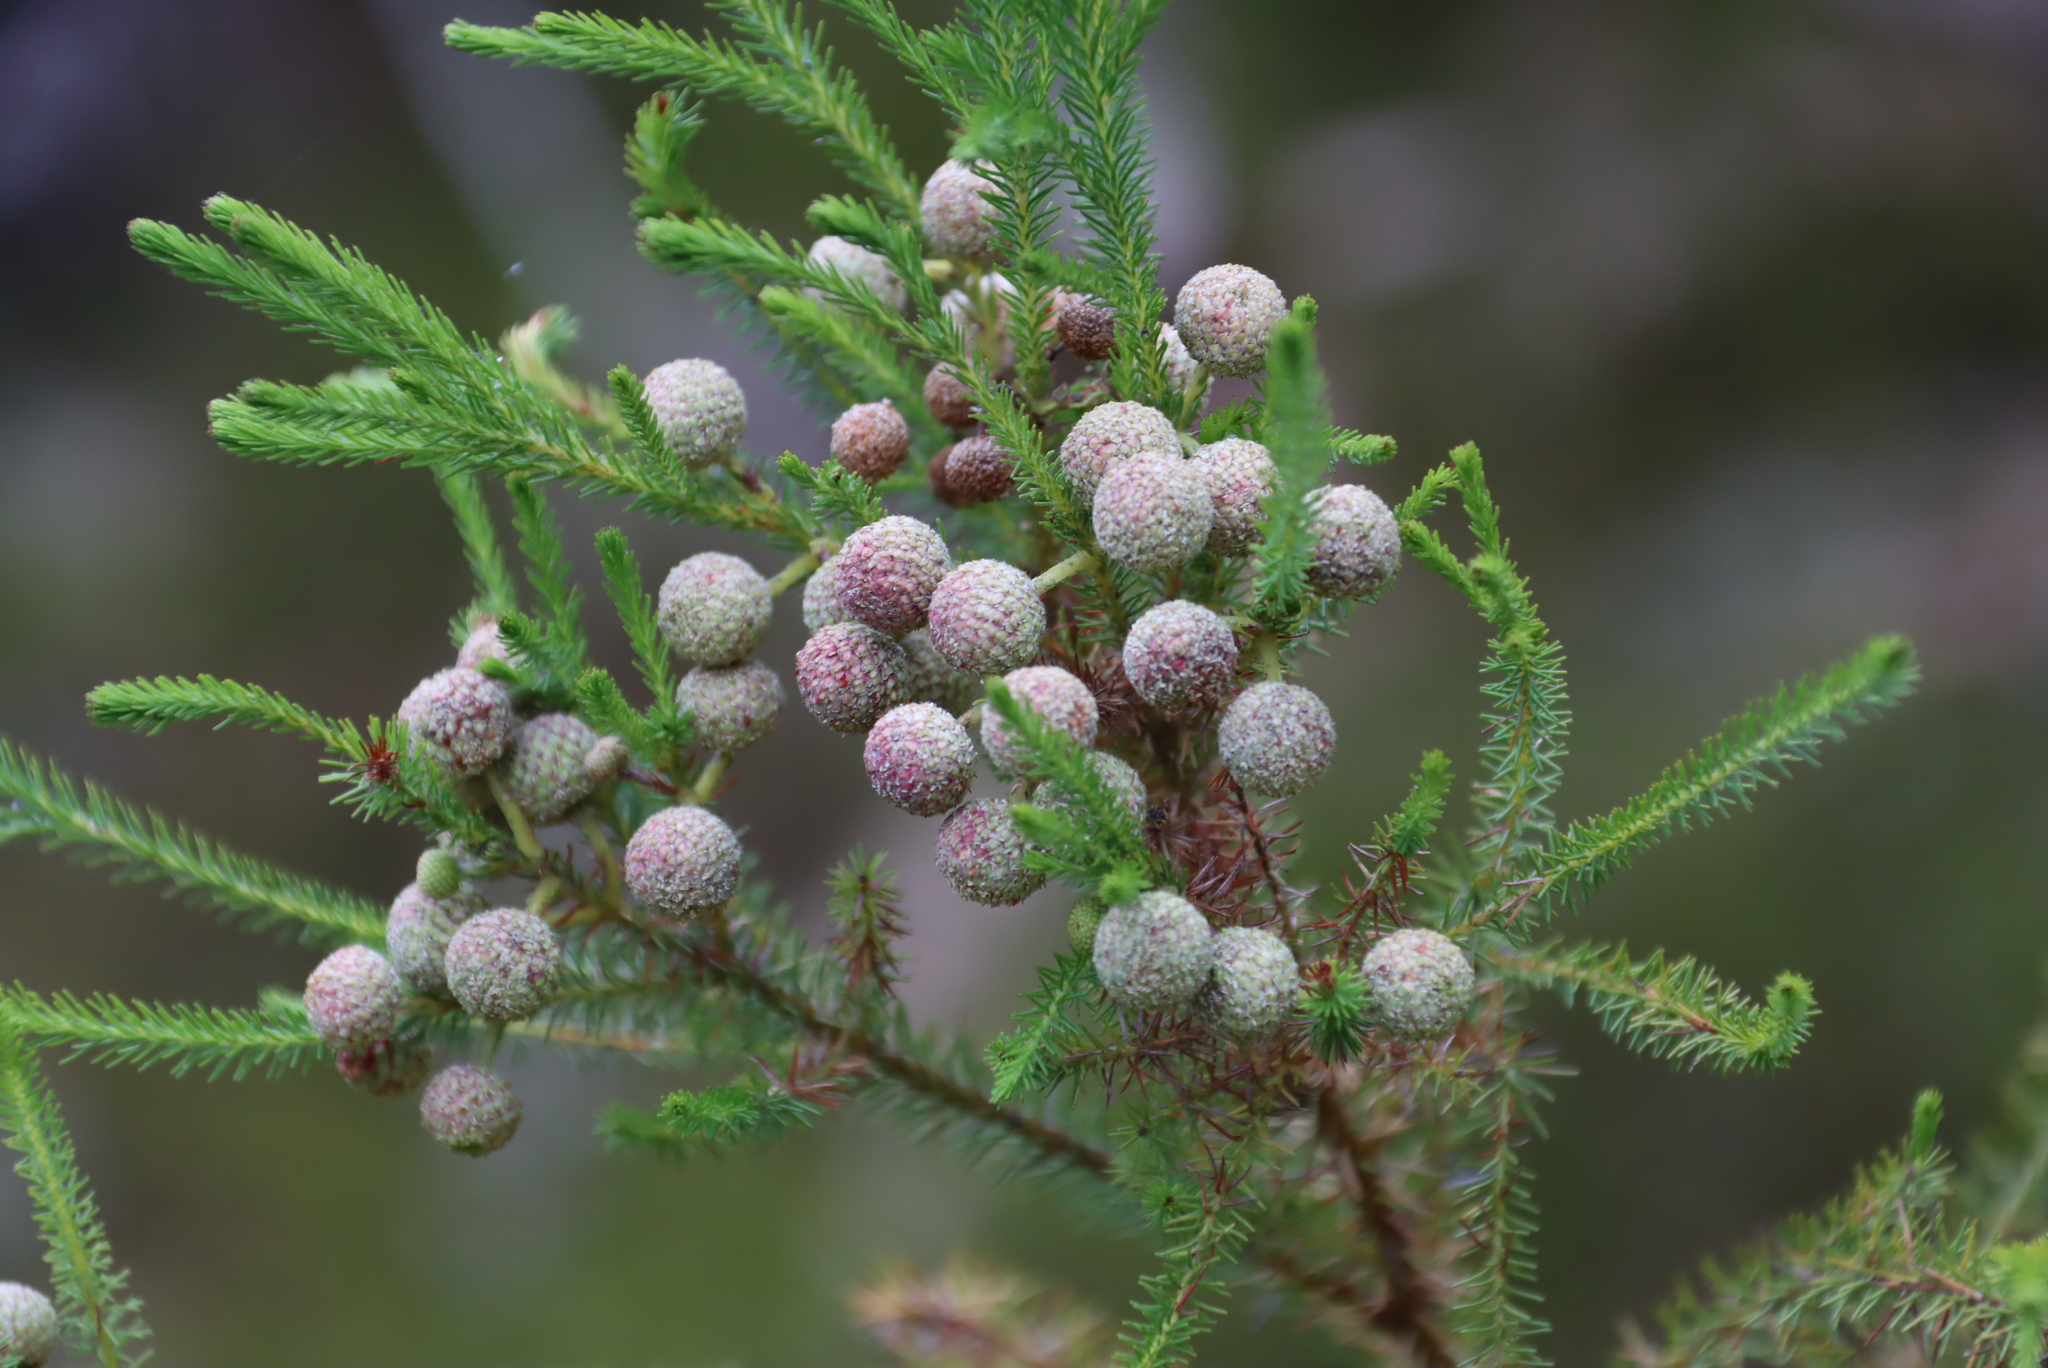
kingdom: Plantae
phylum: Tracheophyta
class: Magnoliopsida
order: Bruniales
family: Bruniaceae
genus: Berzelia
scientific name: Berzelia lanuginosa
